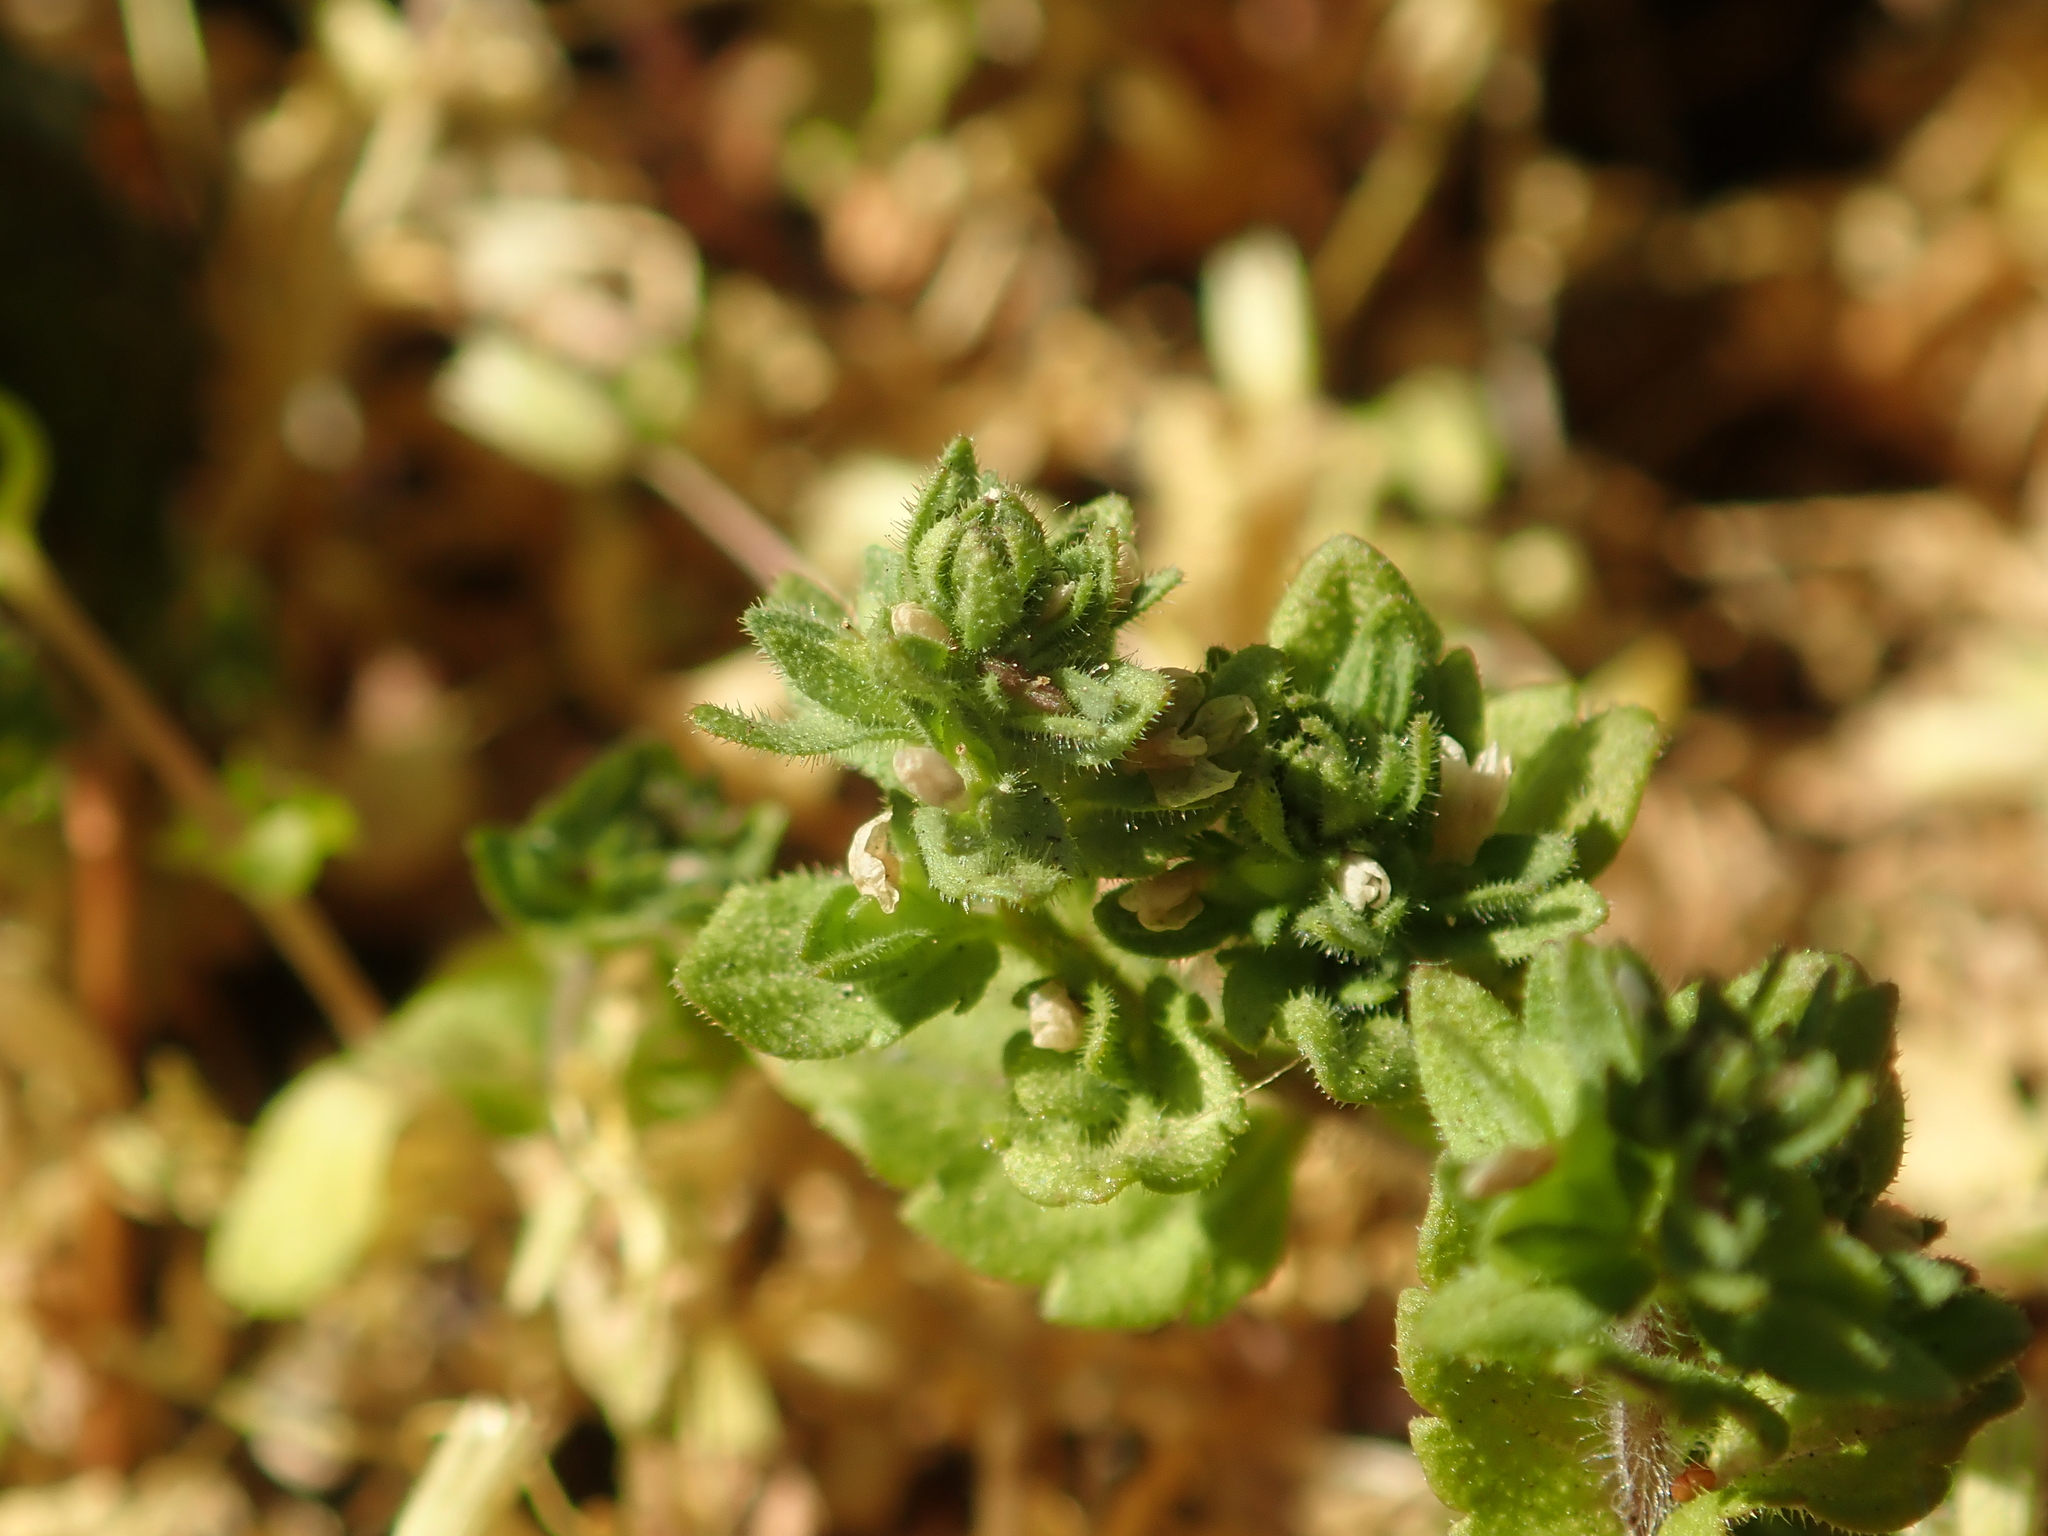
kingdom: Plantae
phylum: Tracheophyta
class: Magnoliopsida
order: Lamiales
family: Plantaginaceae
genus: Veronica
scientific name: Veronica arvensis
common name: Corn speedwell
